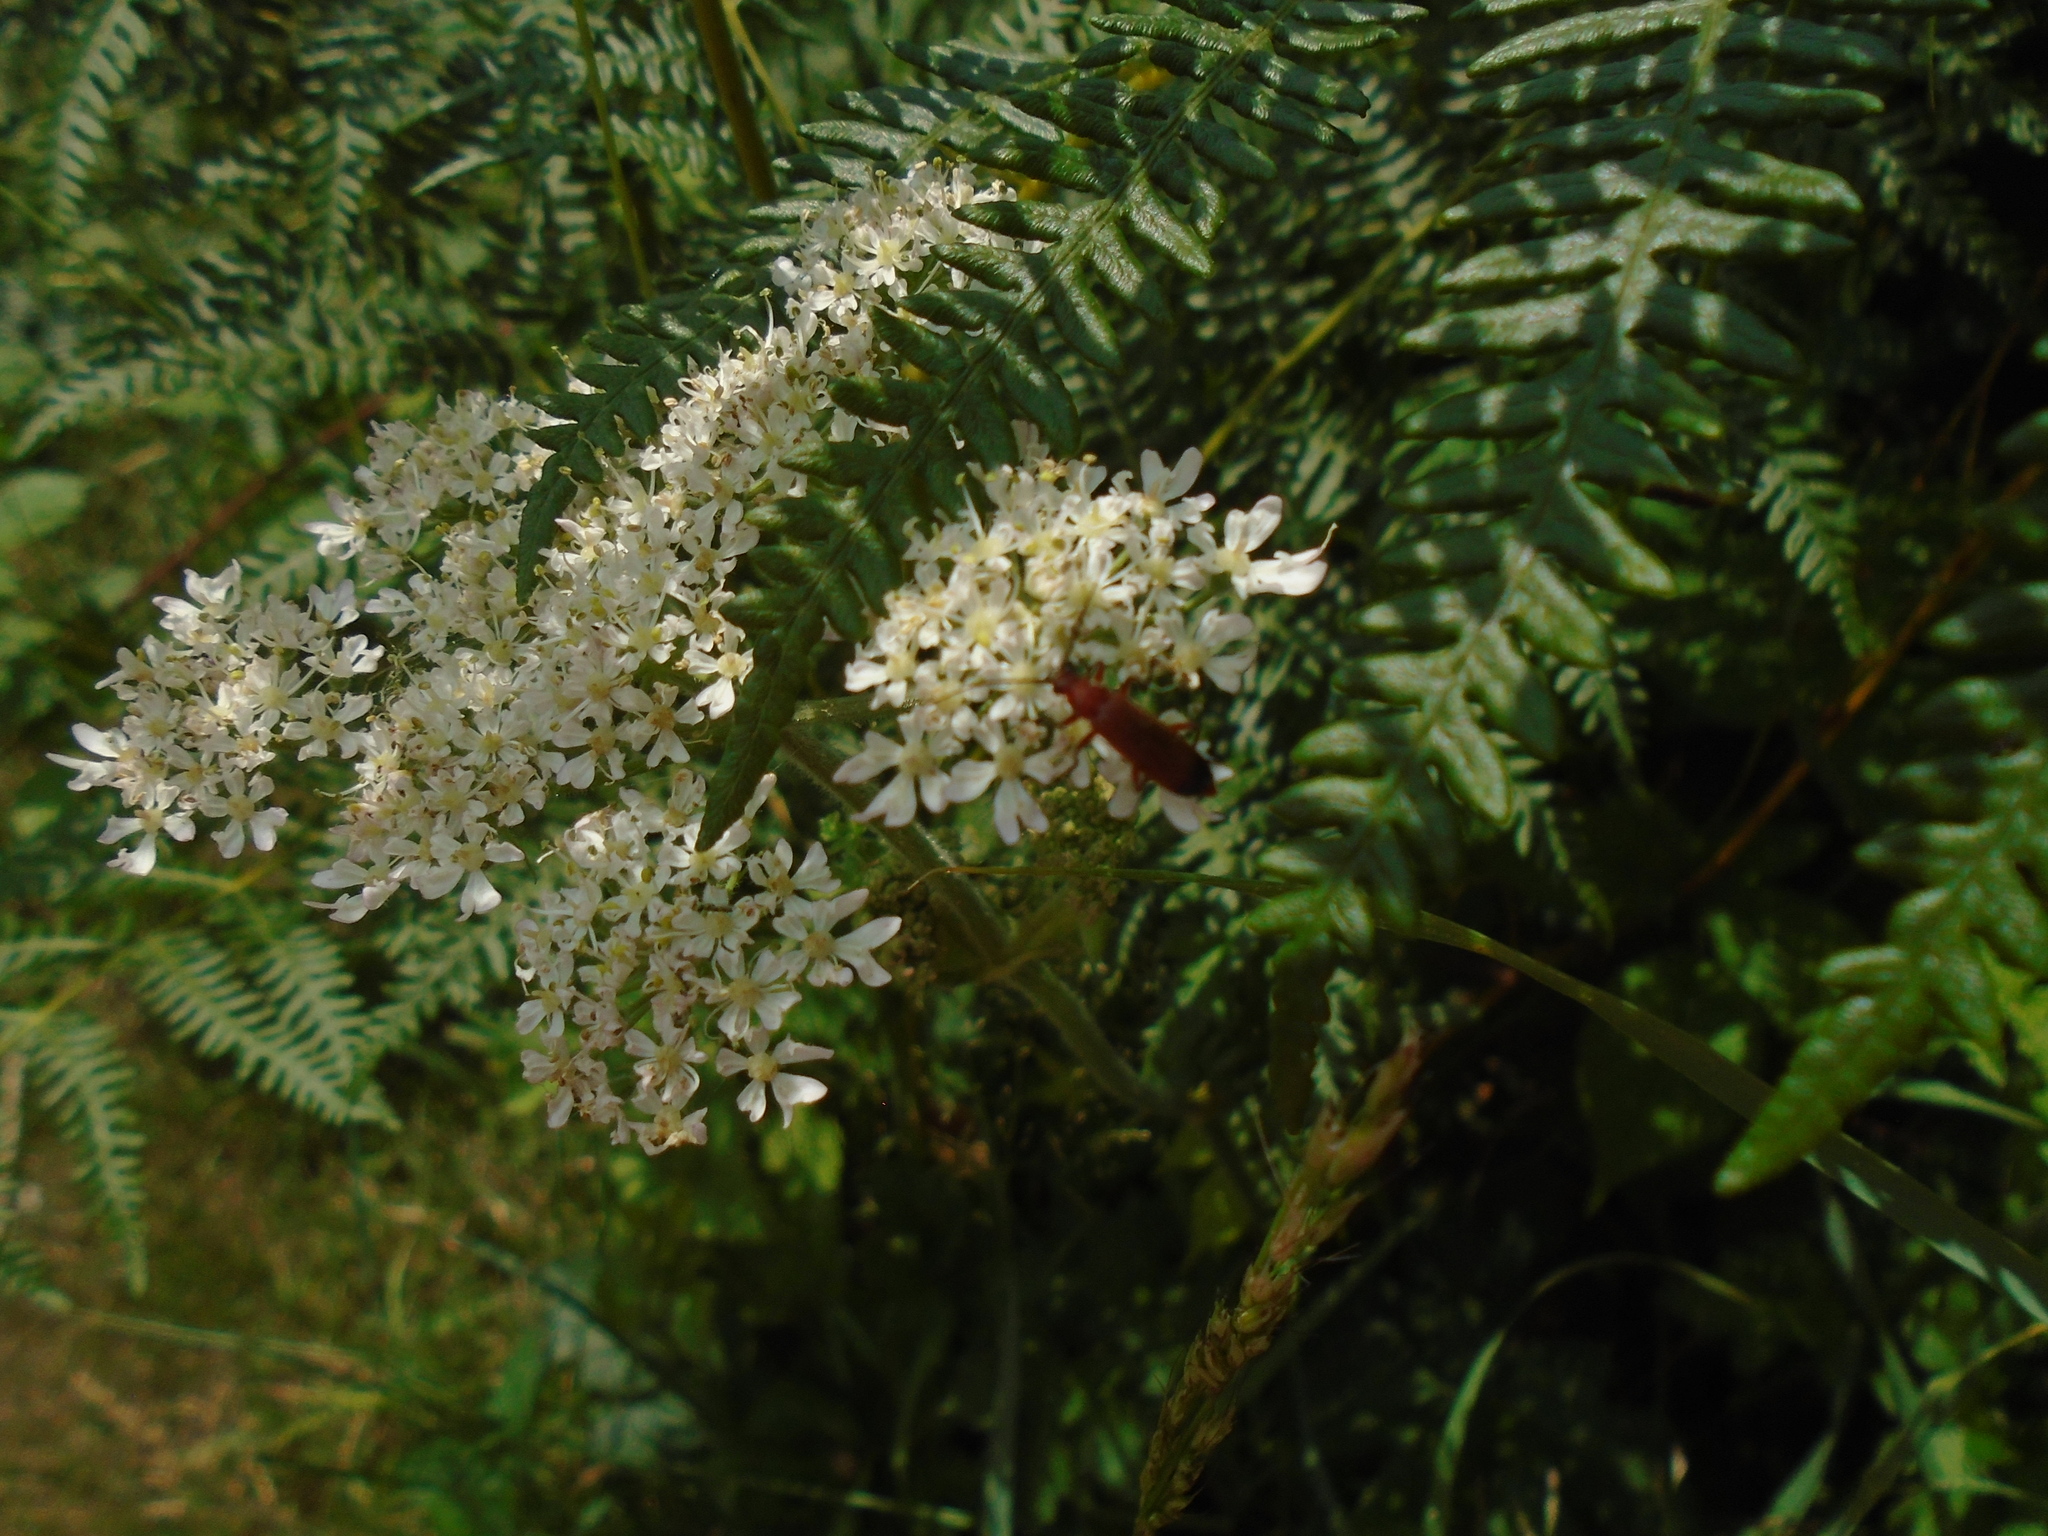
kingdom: Animalia
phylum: Arthropoda
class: Insecta
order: Coleoptera
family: Cantharidae
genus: Rhagonycha
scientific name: Rhagonycha fulva
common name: Common red soldier beetle
